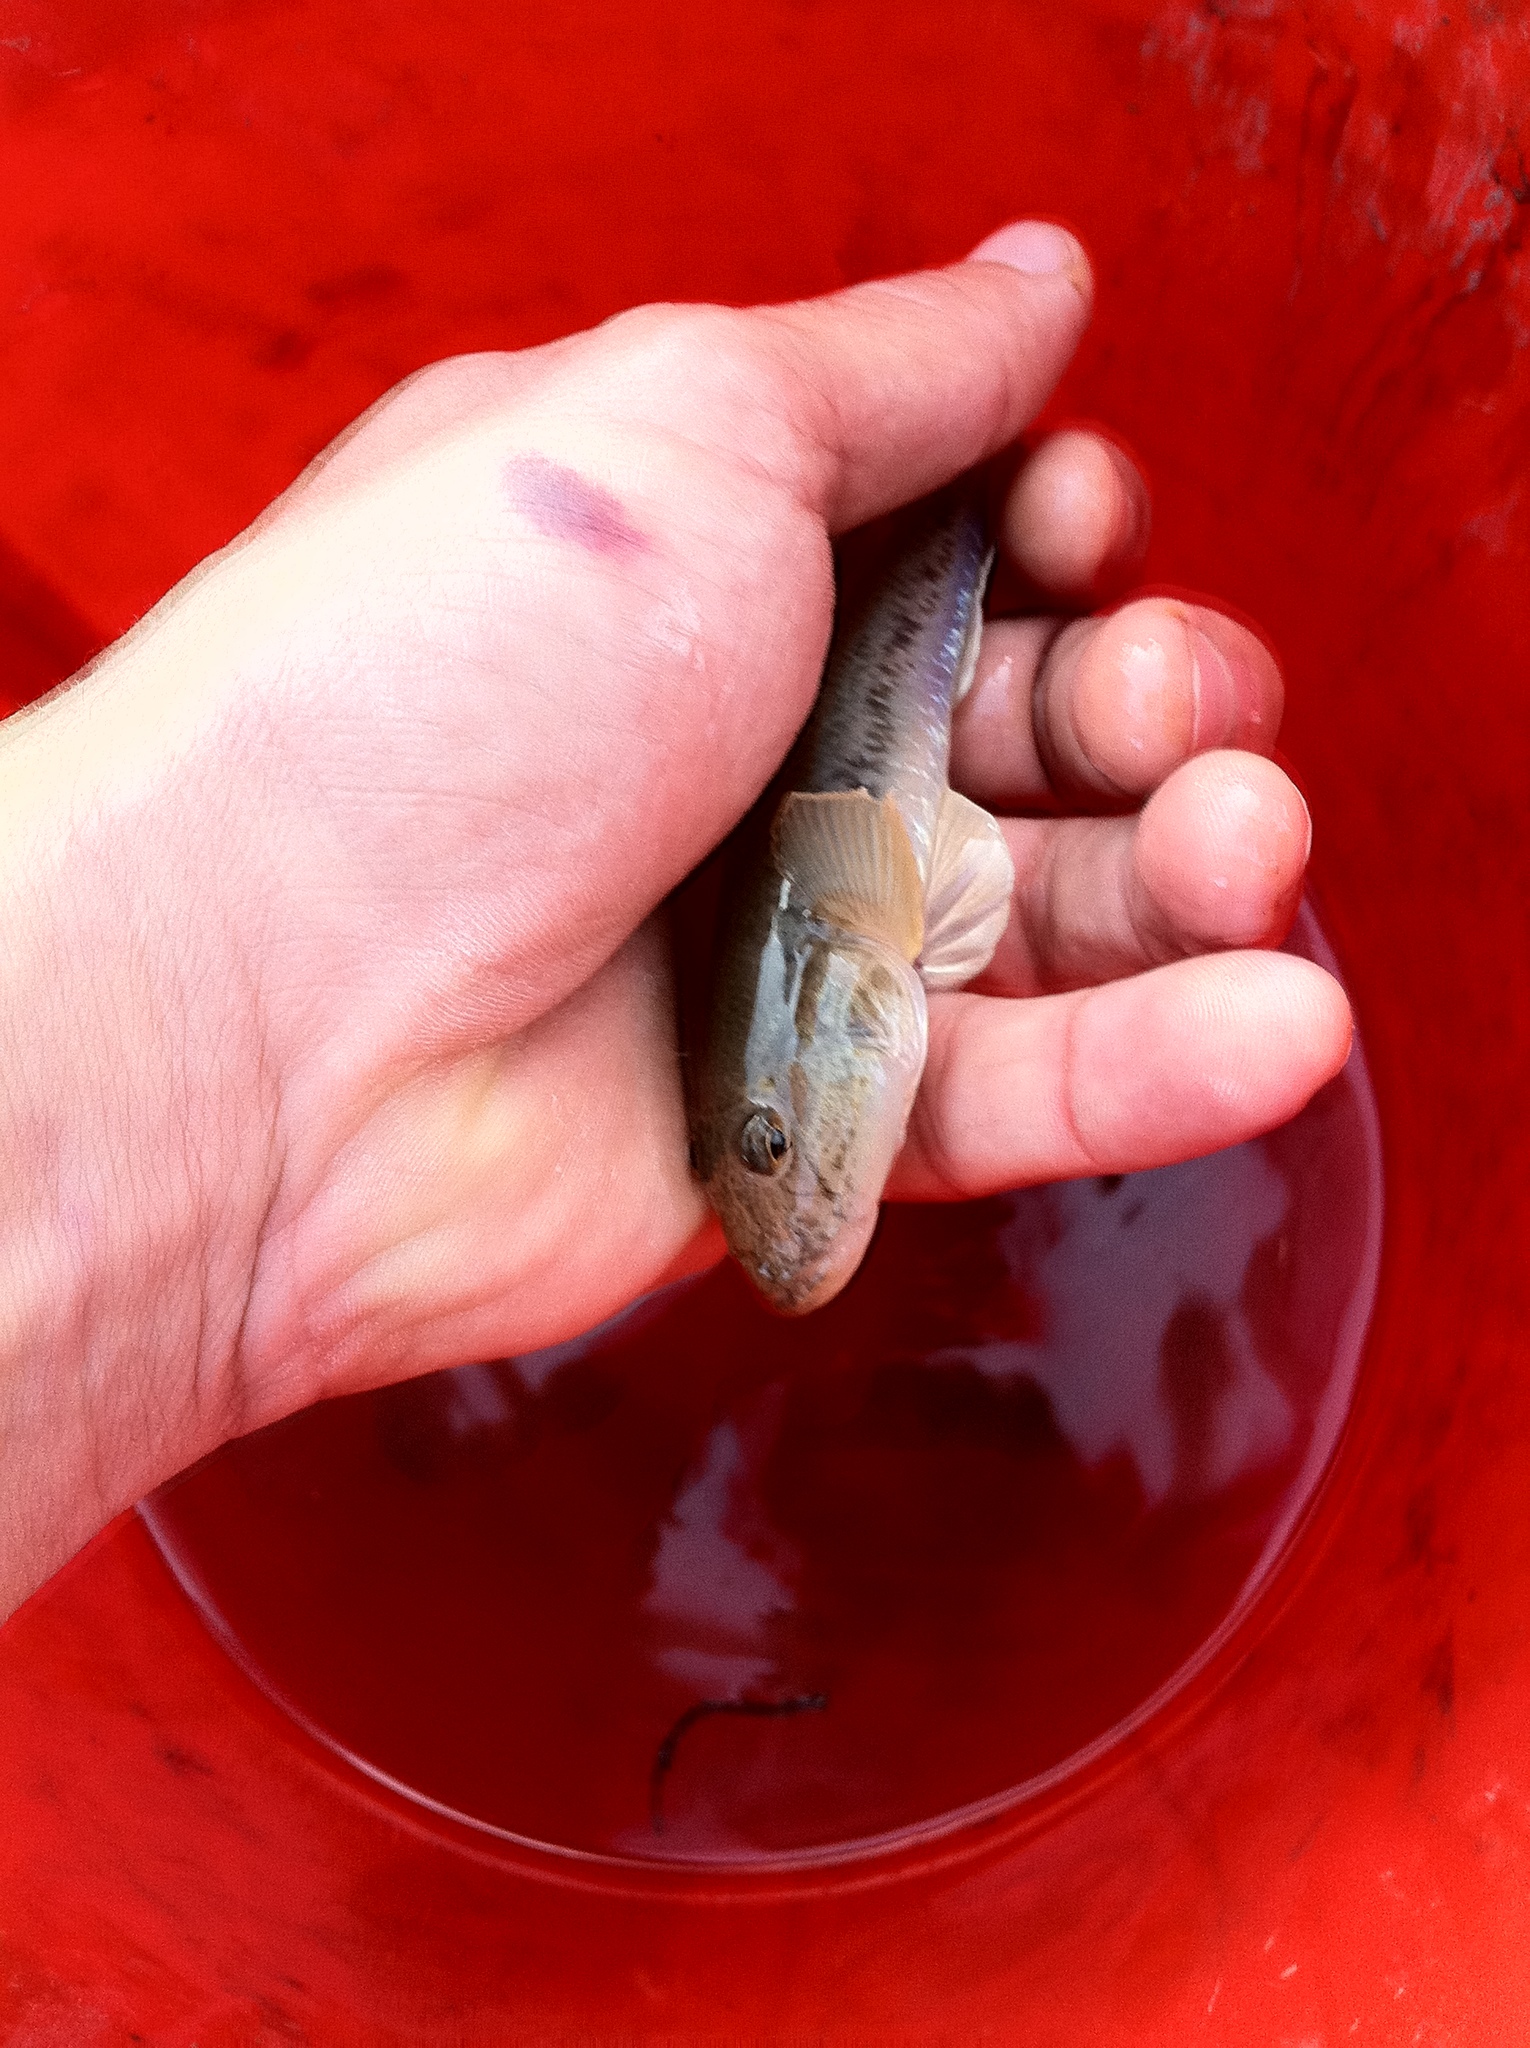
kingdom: Animalia
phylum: Chordata
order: Perciformes
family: Gobiidae
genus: Acanthogobius
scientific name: Acanthogobius flavimanus
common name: Yellowfin goby
